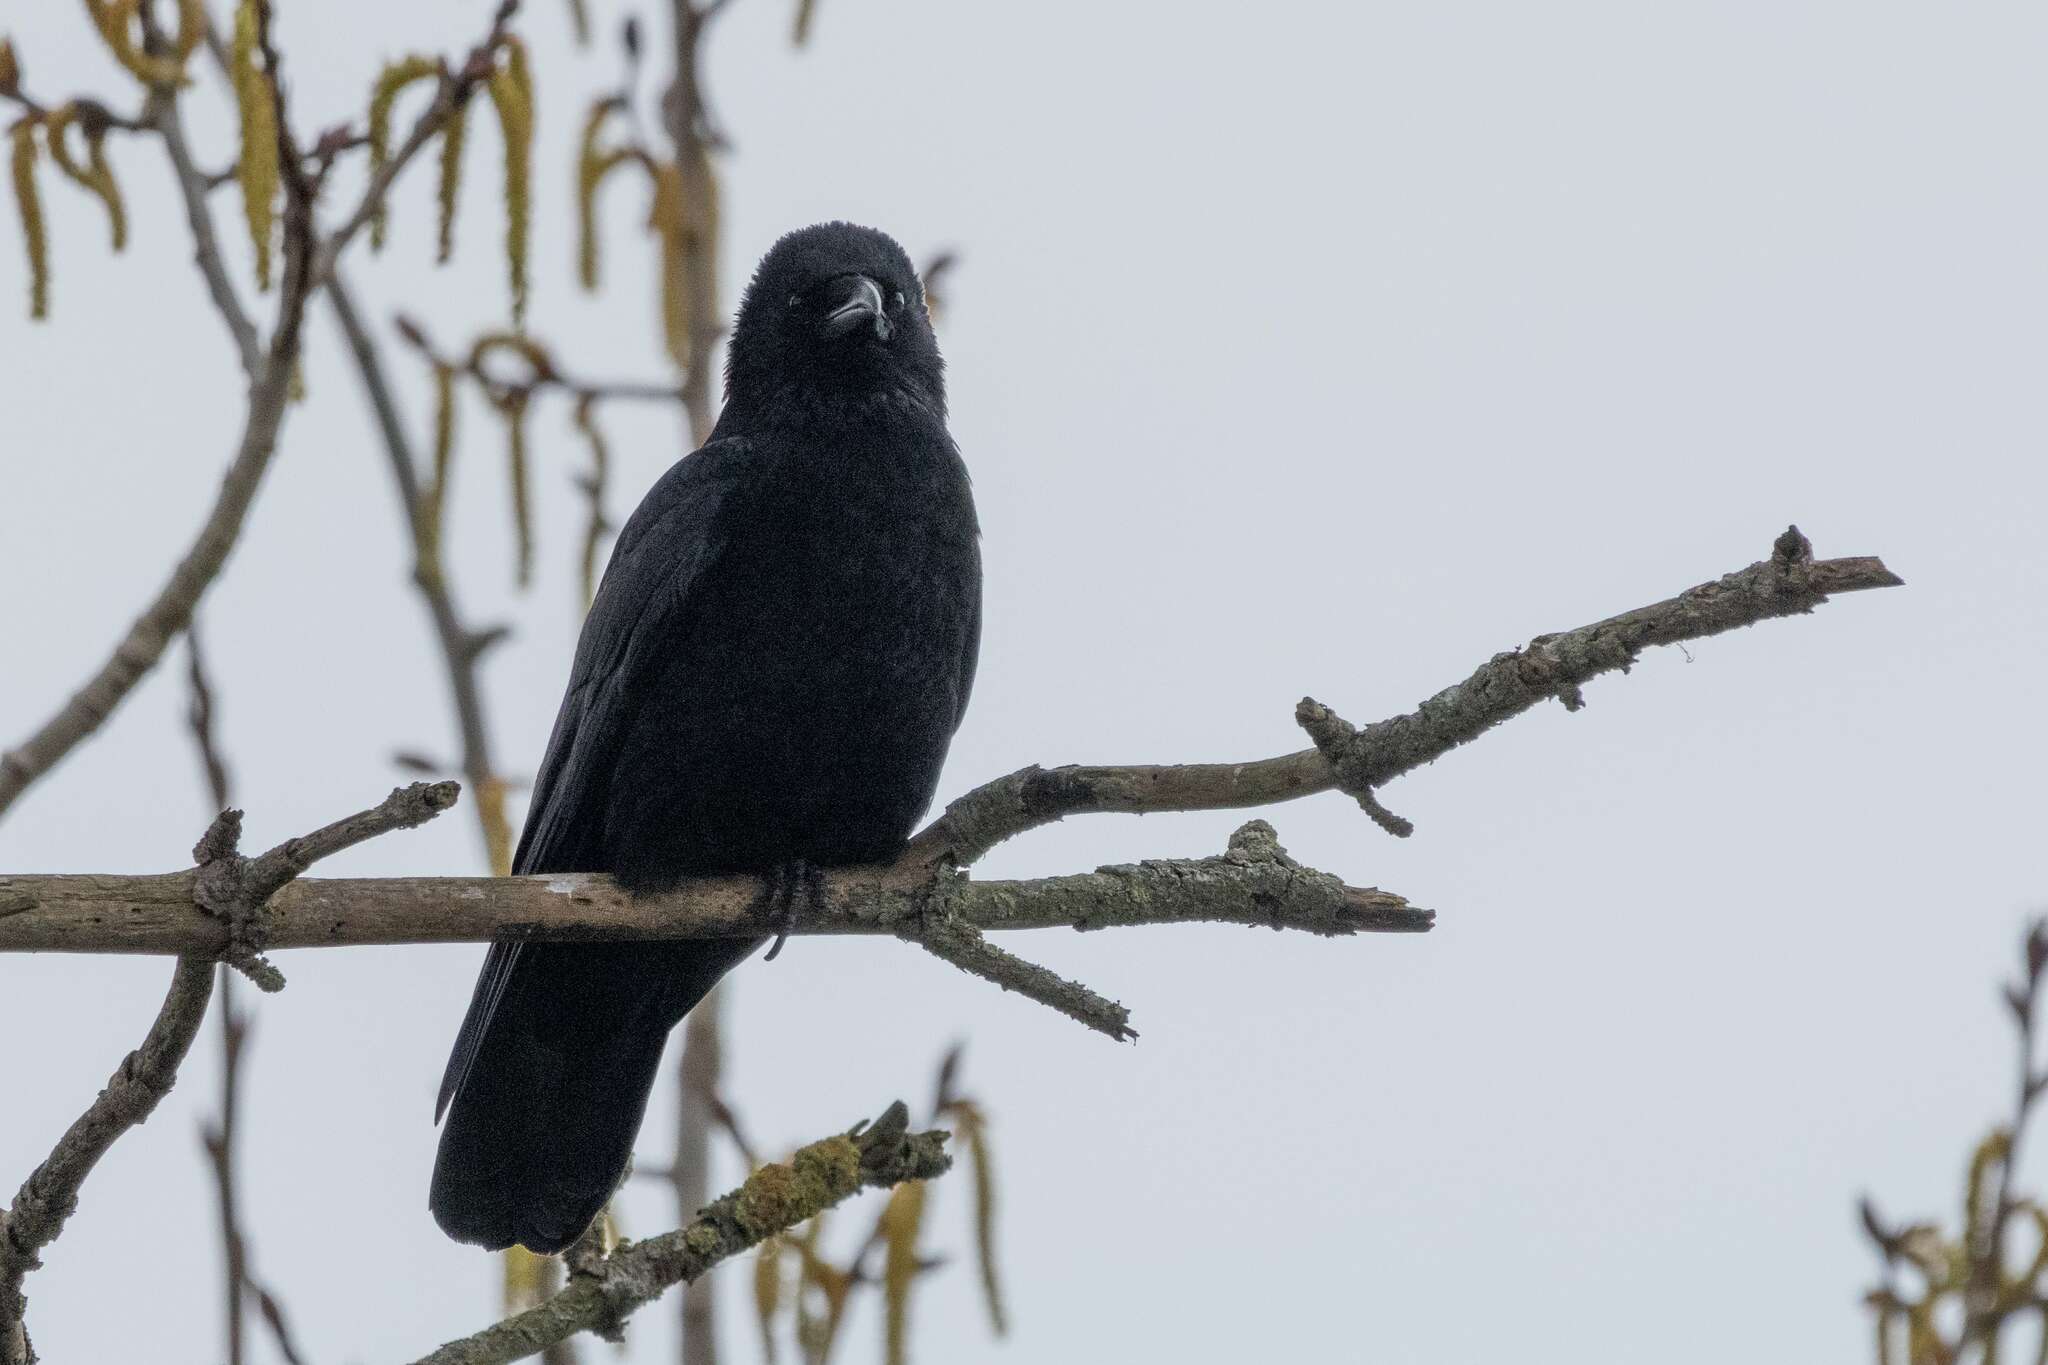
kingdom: Animalia
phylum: Chordata
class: Aves
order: Passeriformes
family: Corvidae
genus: Corvus
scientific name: Corvus corone
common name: Carrion crow
